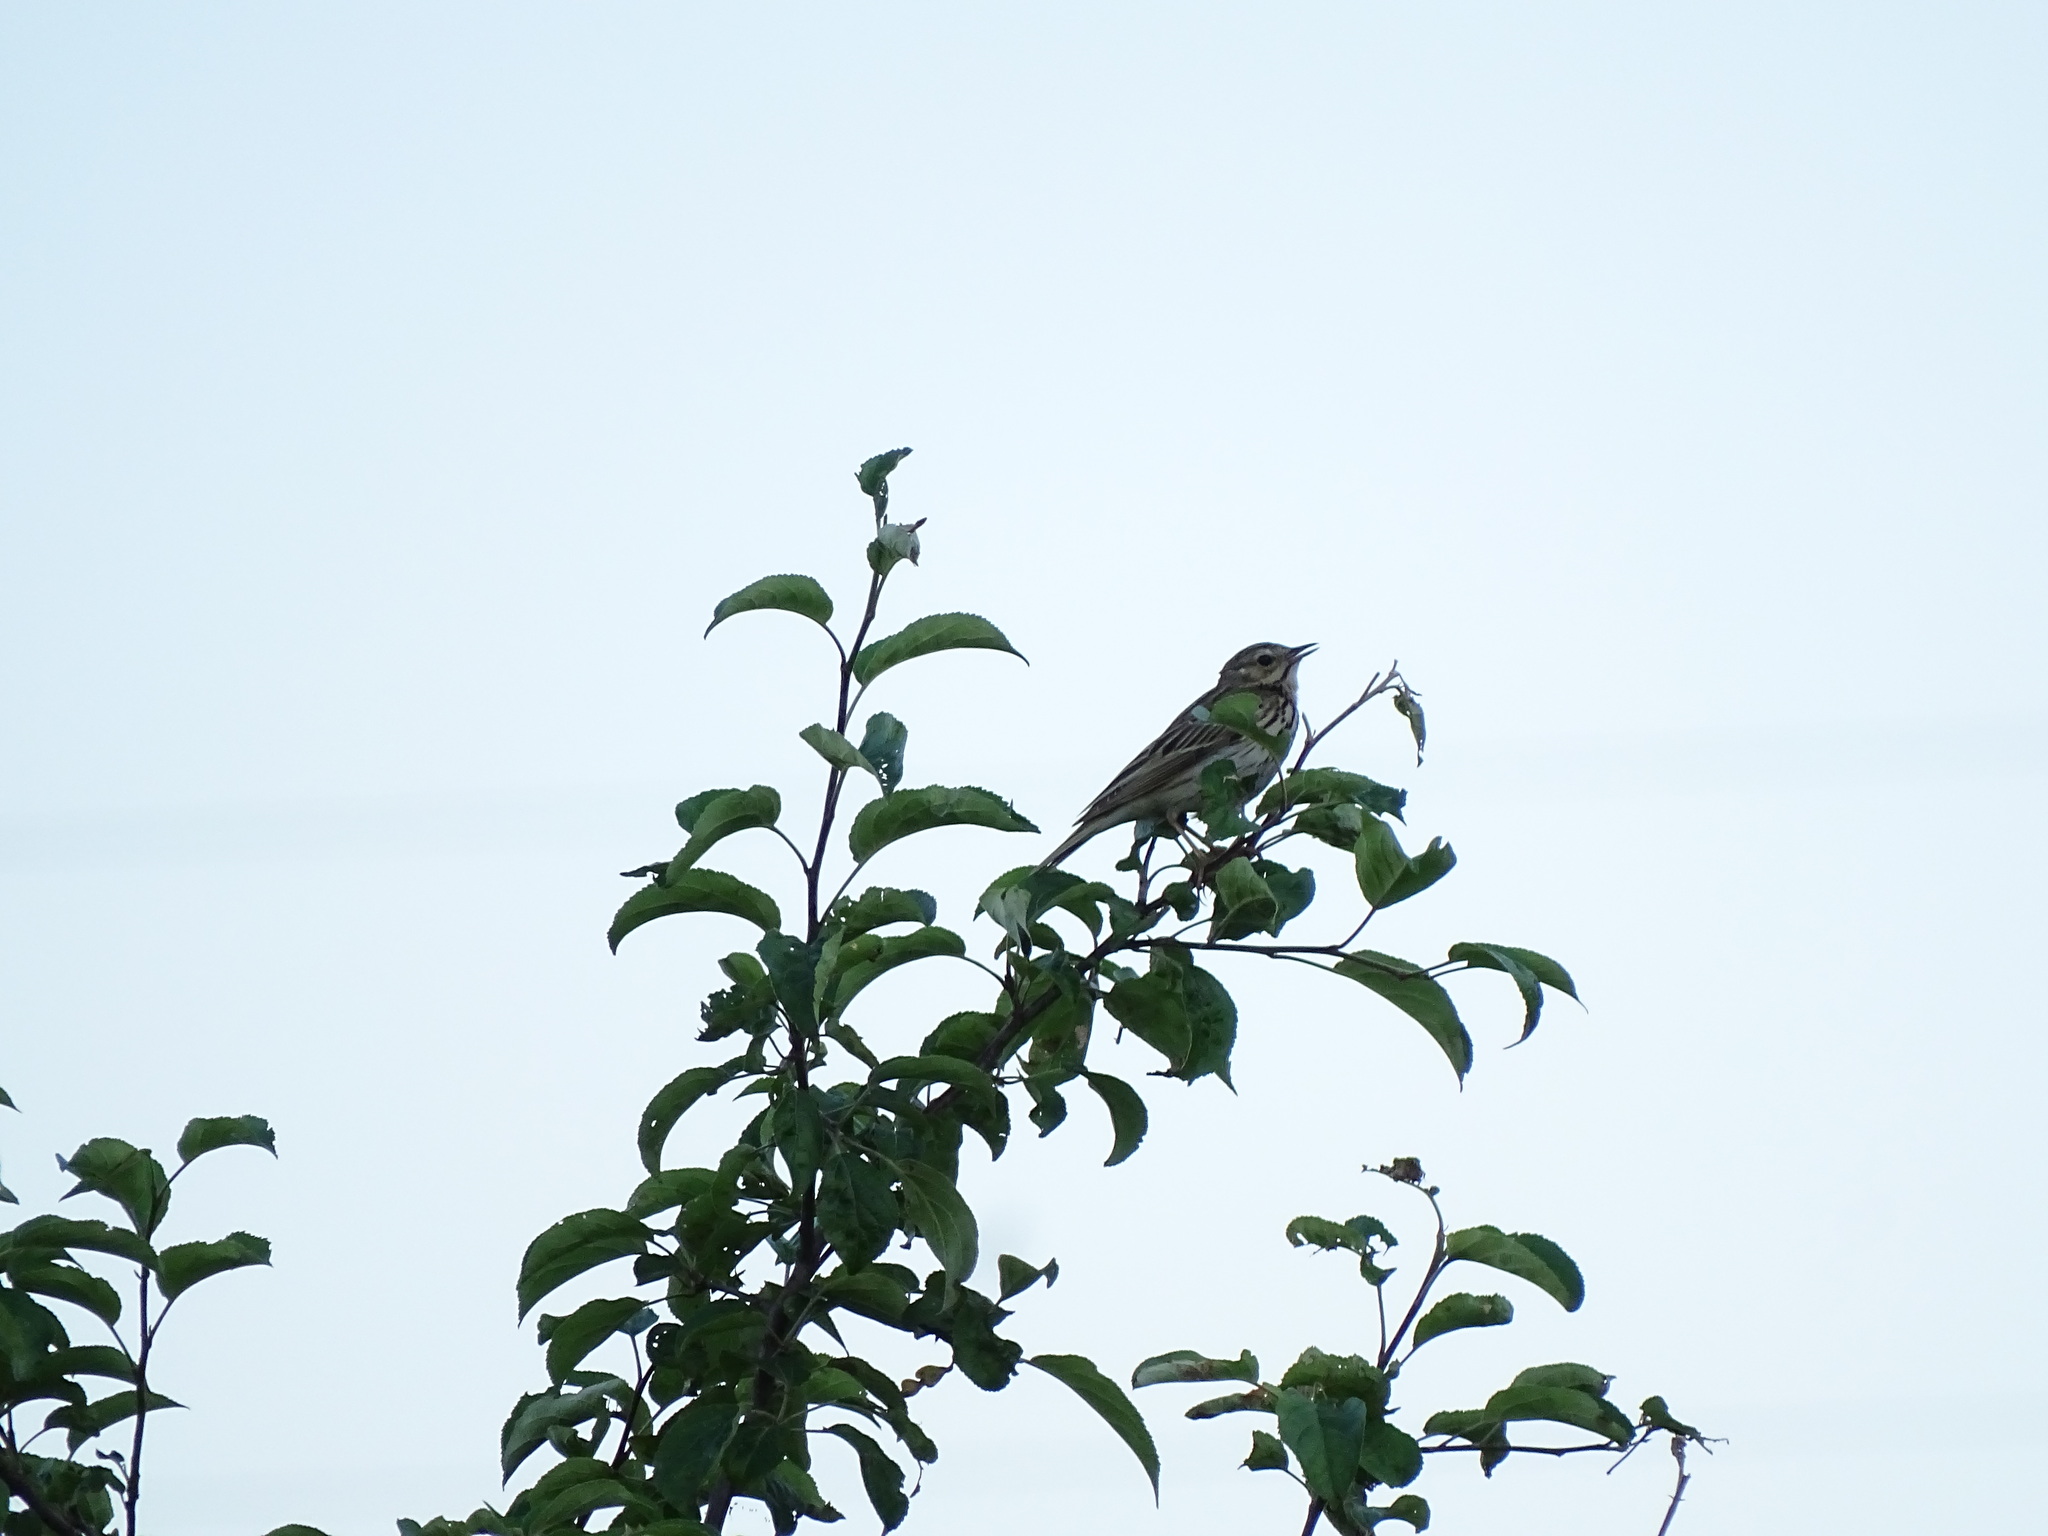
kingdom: Animalia
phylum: Chordata
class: Aves
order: Passeriformes
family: Motacillidae
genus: Anthus
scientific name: Anthus trivialis
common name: Tree pipit
